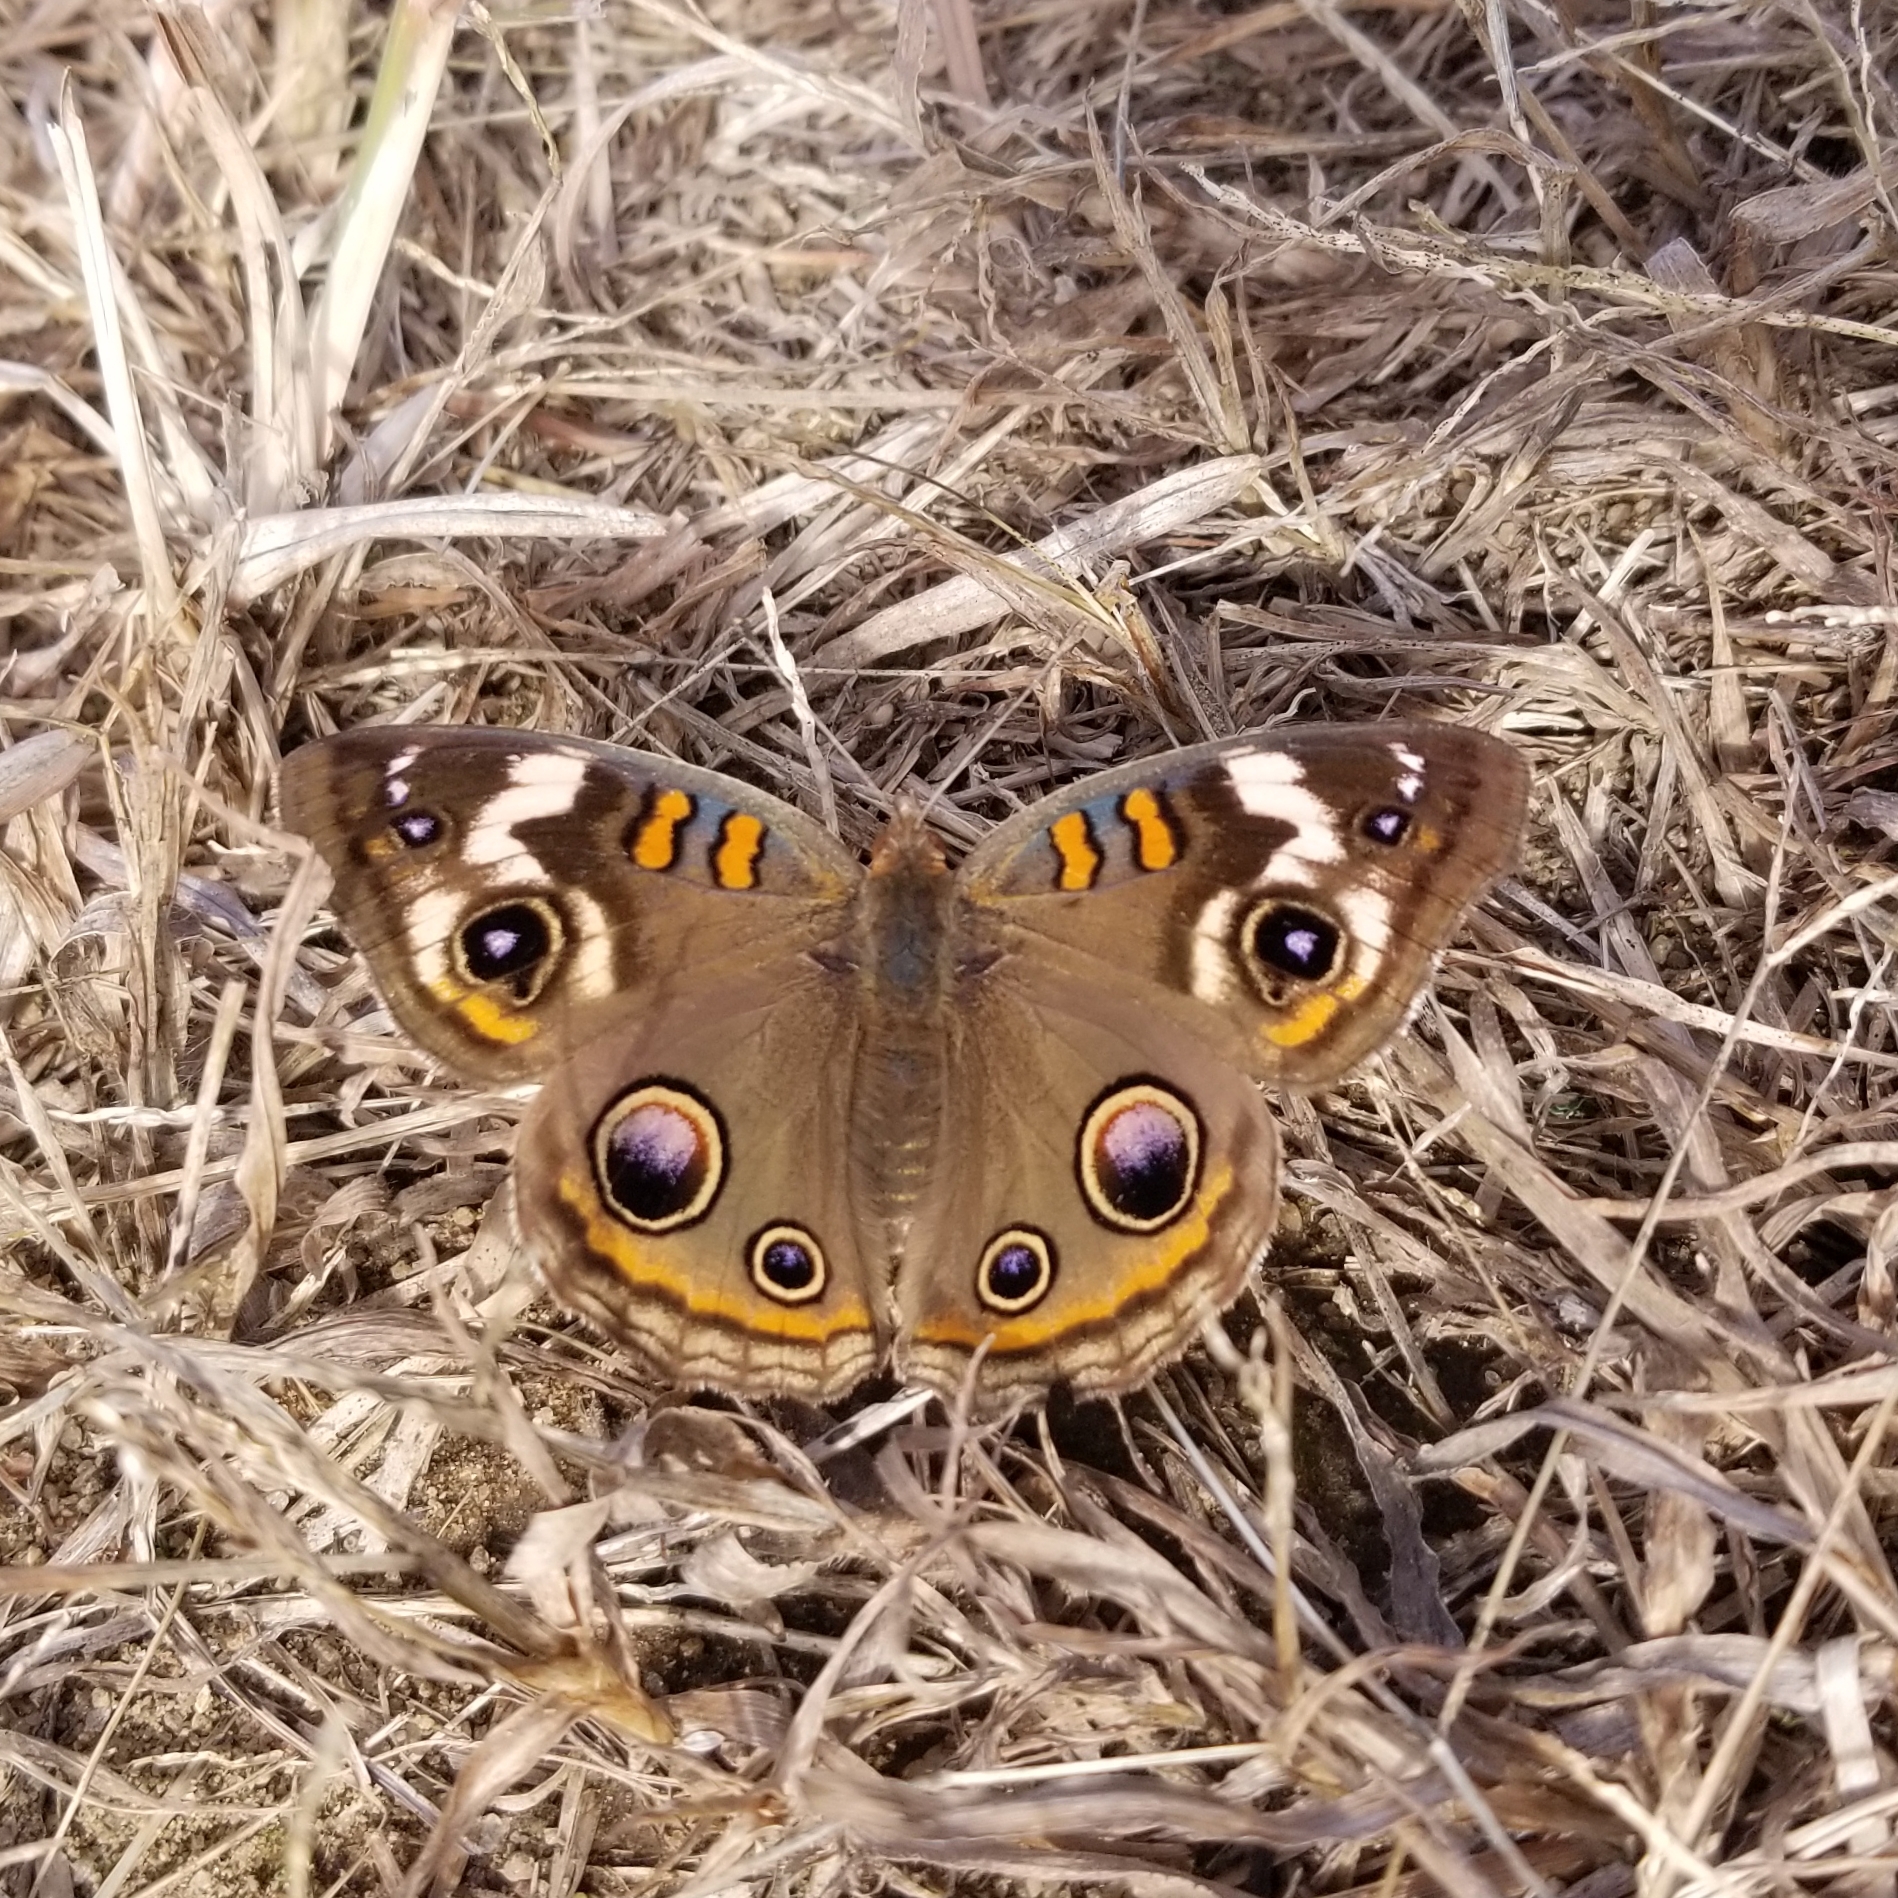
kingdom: Animalia
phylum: Arthropoda
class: Insecta
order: Lepidoptera
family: Nymphalidae
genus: Junonia
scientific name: Junonia coenia
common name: Common buckeye
